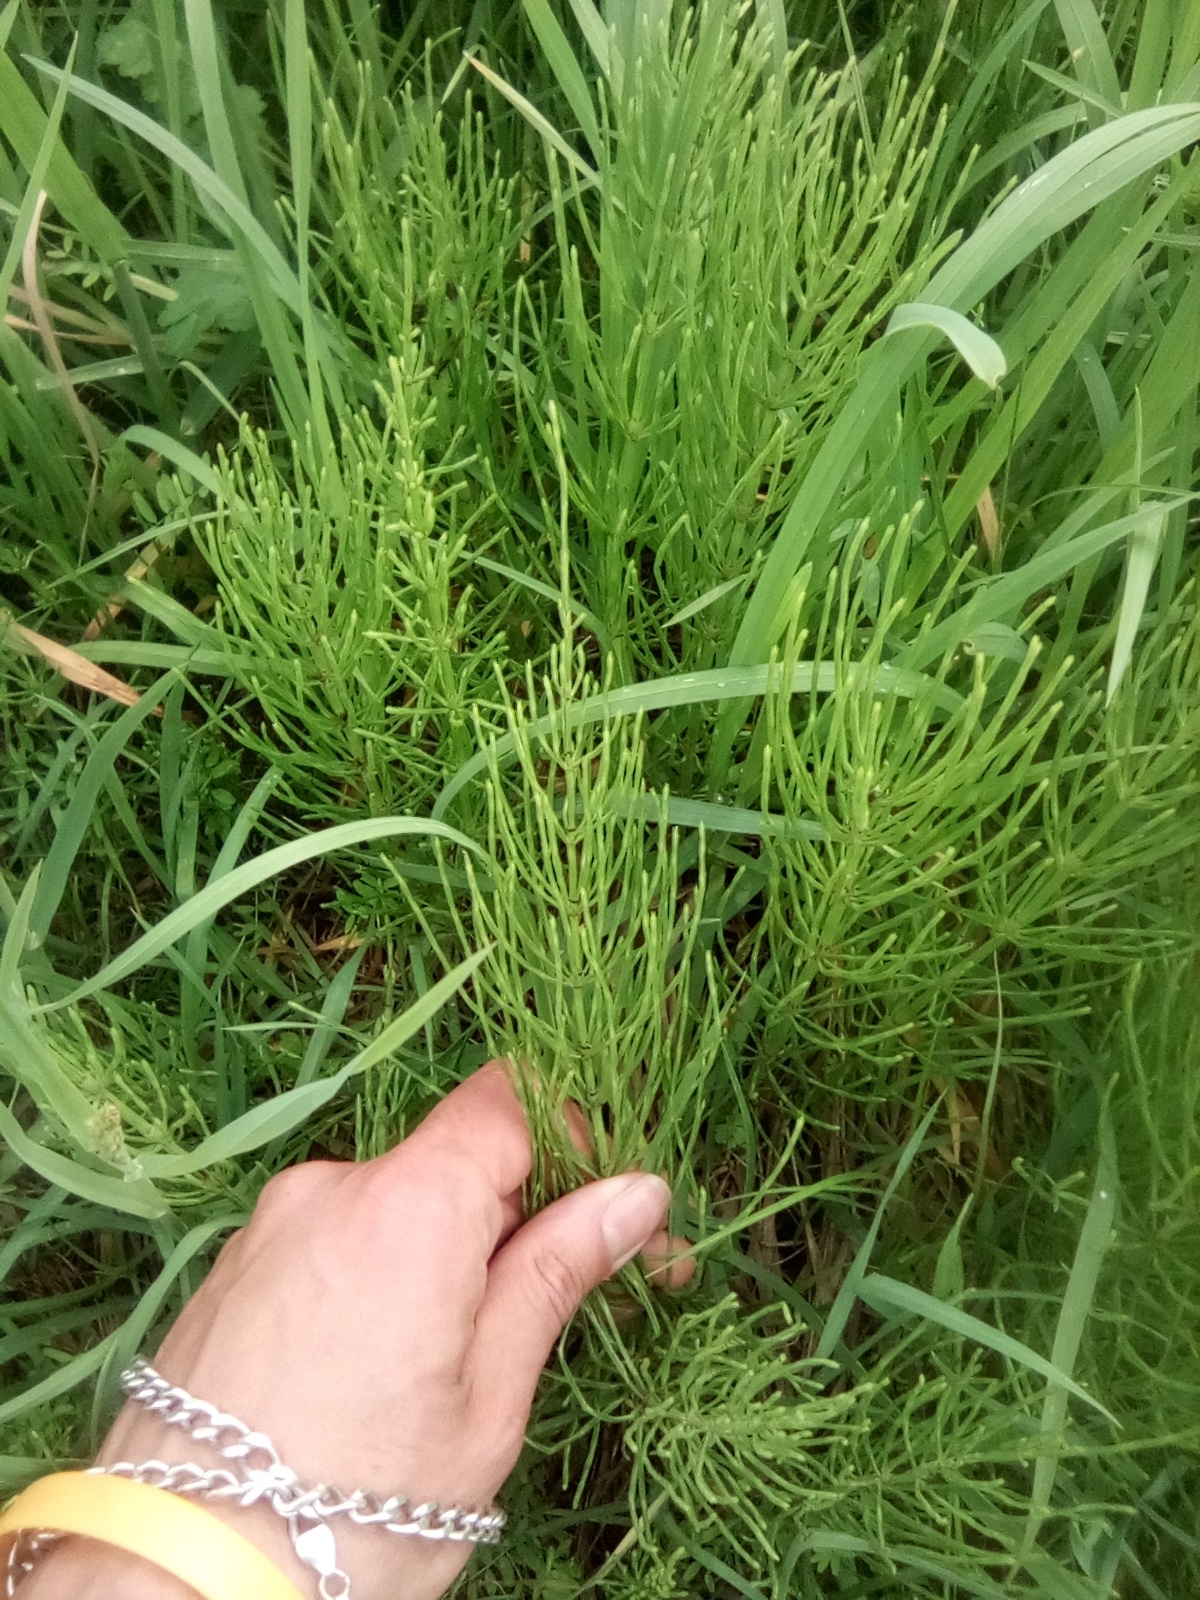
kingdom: Plantae
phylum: Tracheophyta
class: Polypodiopsida
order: Equisetales
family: Equisetaceae
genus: Equisetum
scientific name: Equisetum arvense
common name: Field horsetail
